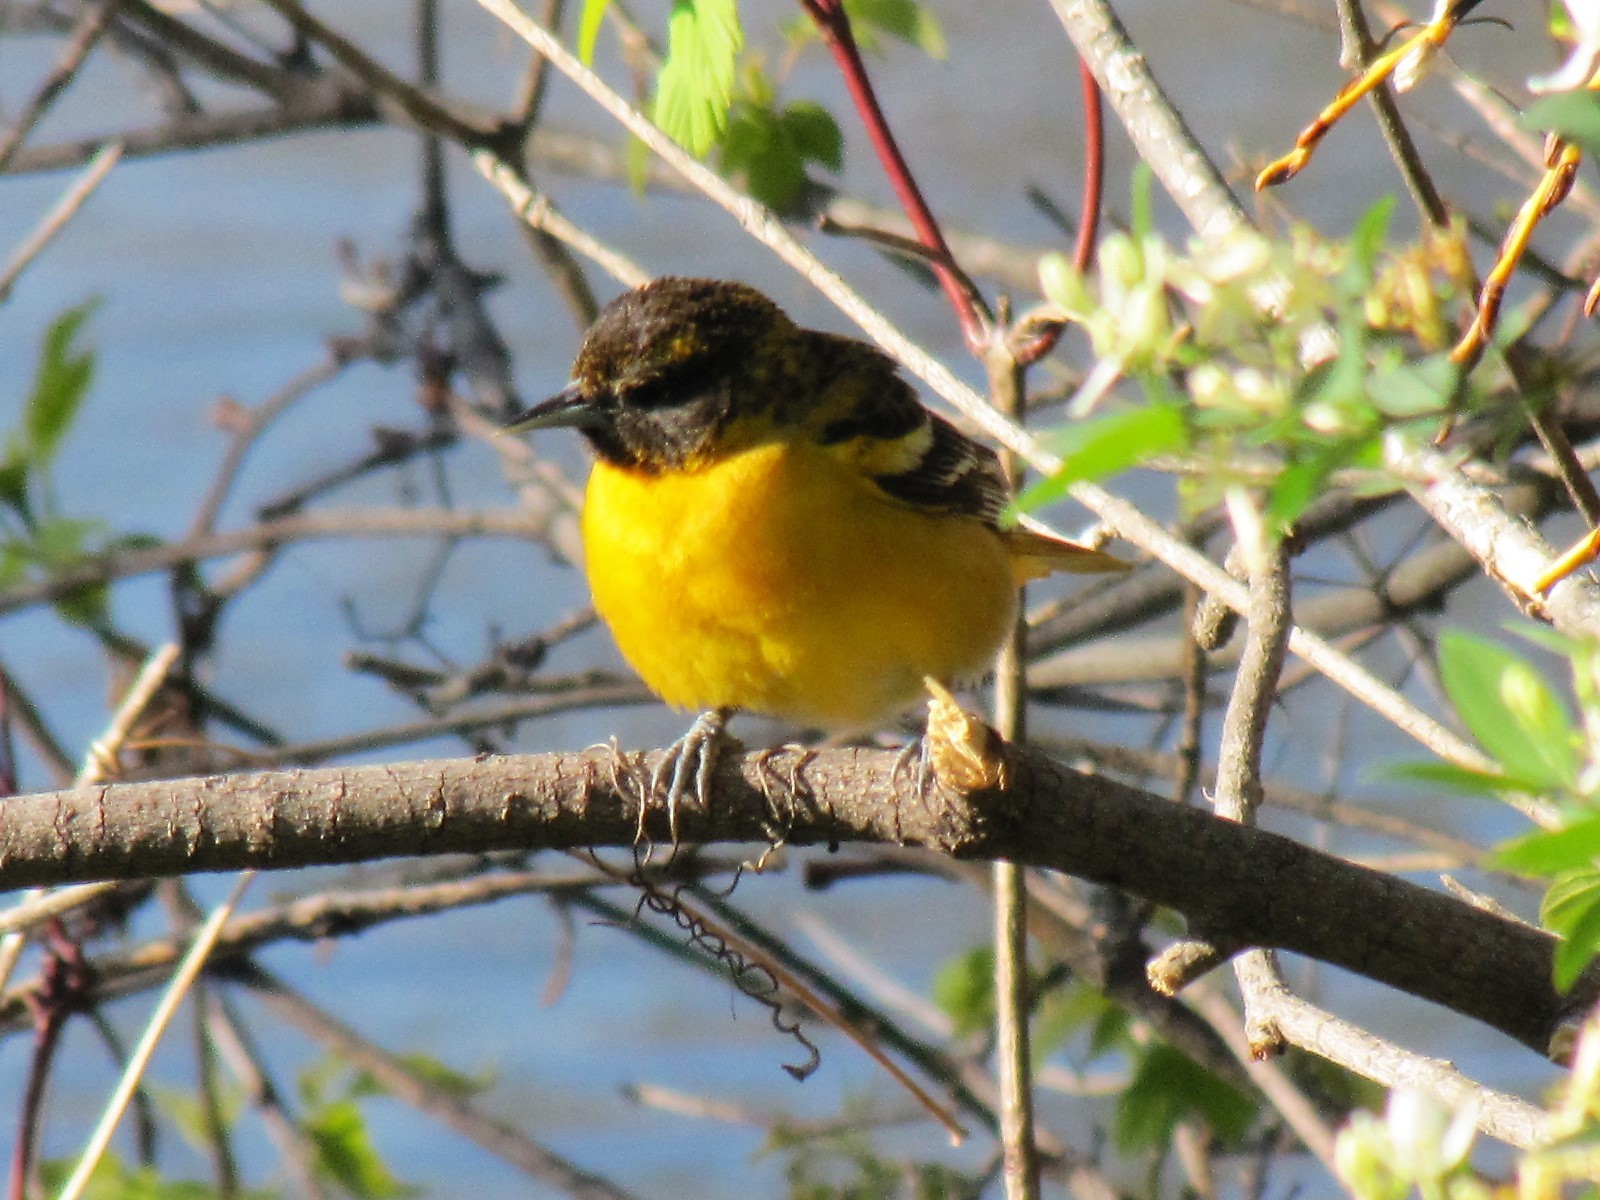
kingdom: Animalia
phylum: Chordata
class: Aves
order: Passeriformes
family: Icteridae
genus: Icterus
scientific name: Icterus galbula
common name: Baltimore oriole
